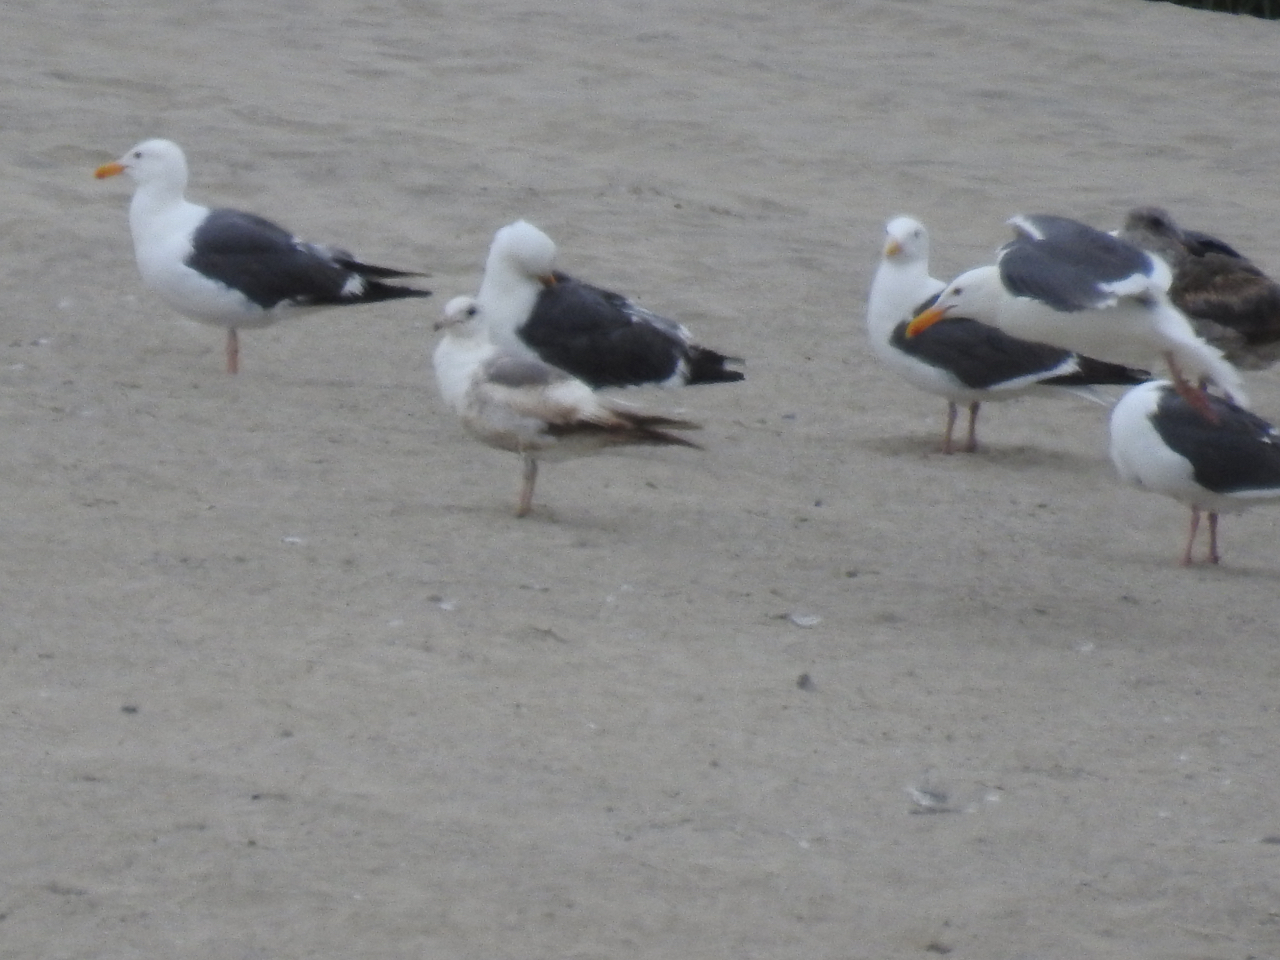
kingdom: Animalia
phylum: Chordata
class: Aves
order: Charadriiformes
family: Laridae
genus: Larus
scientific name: Larus occidentalis
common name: Western gull
